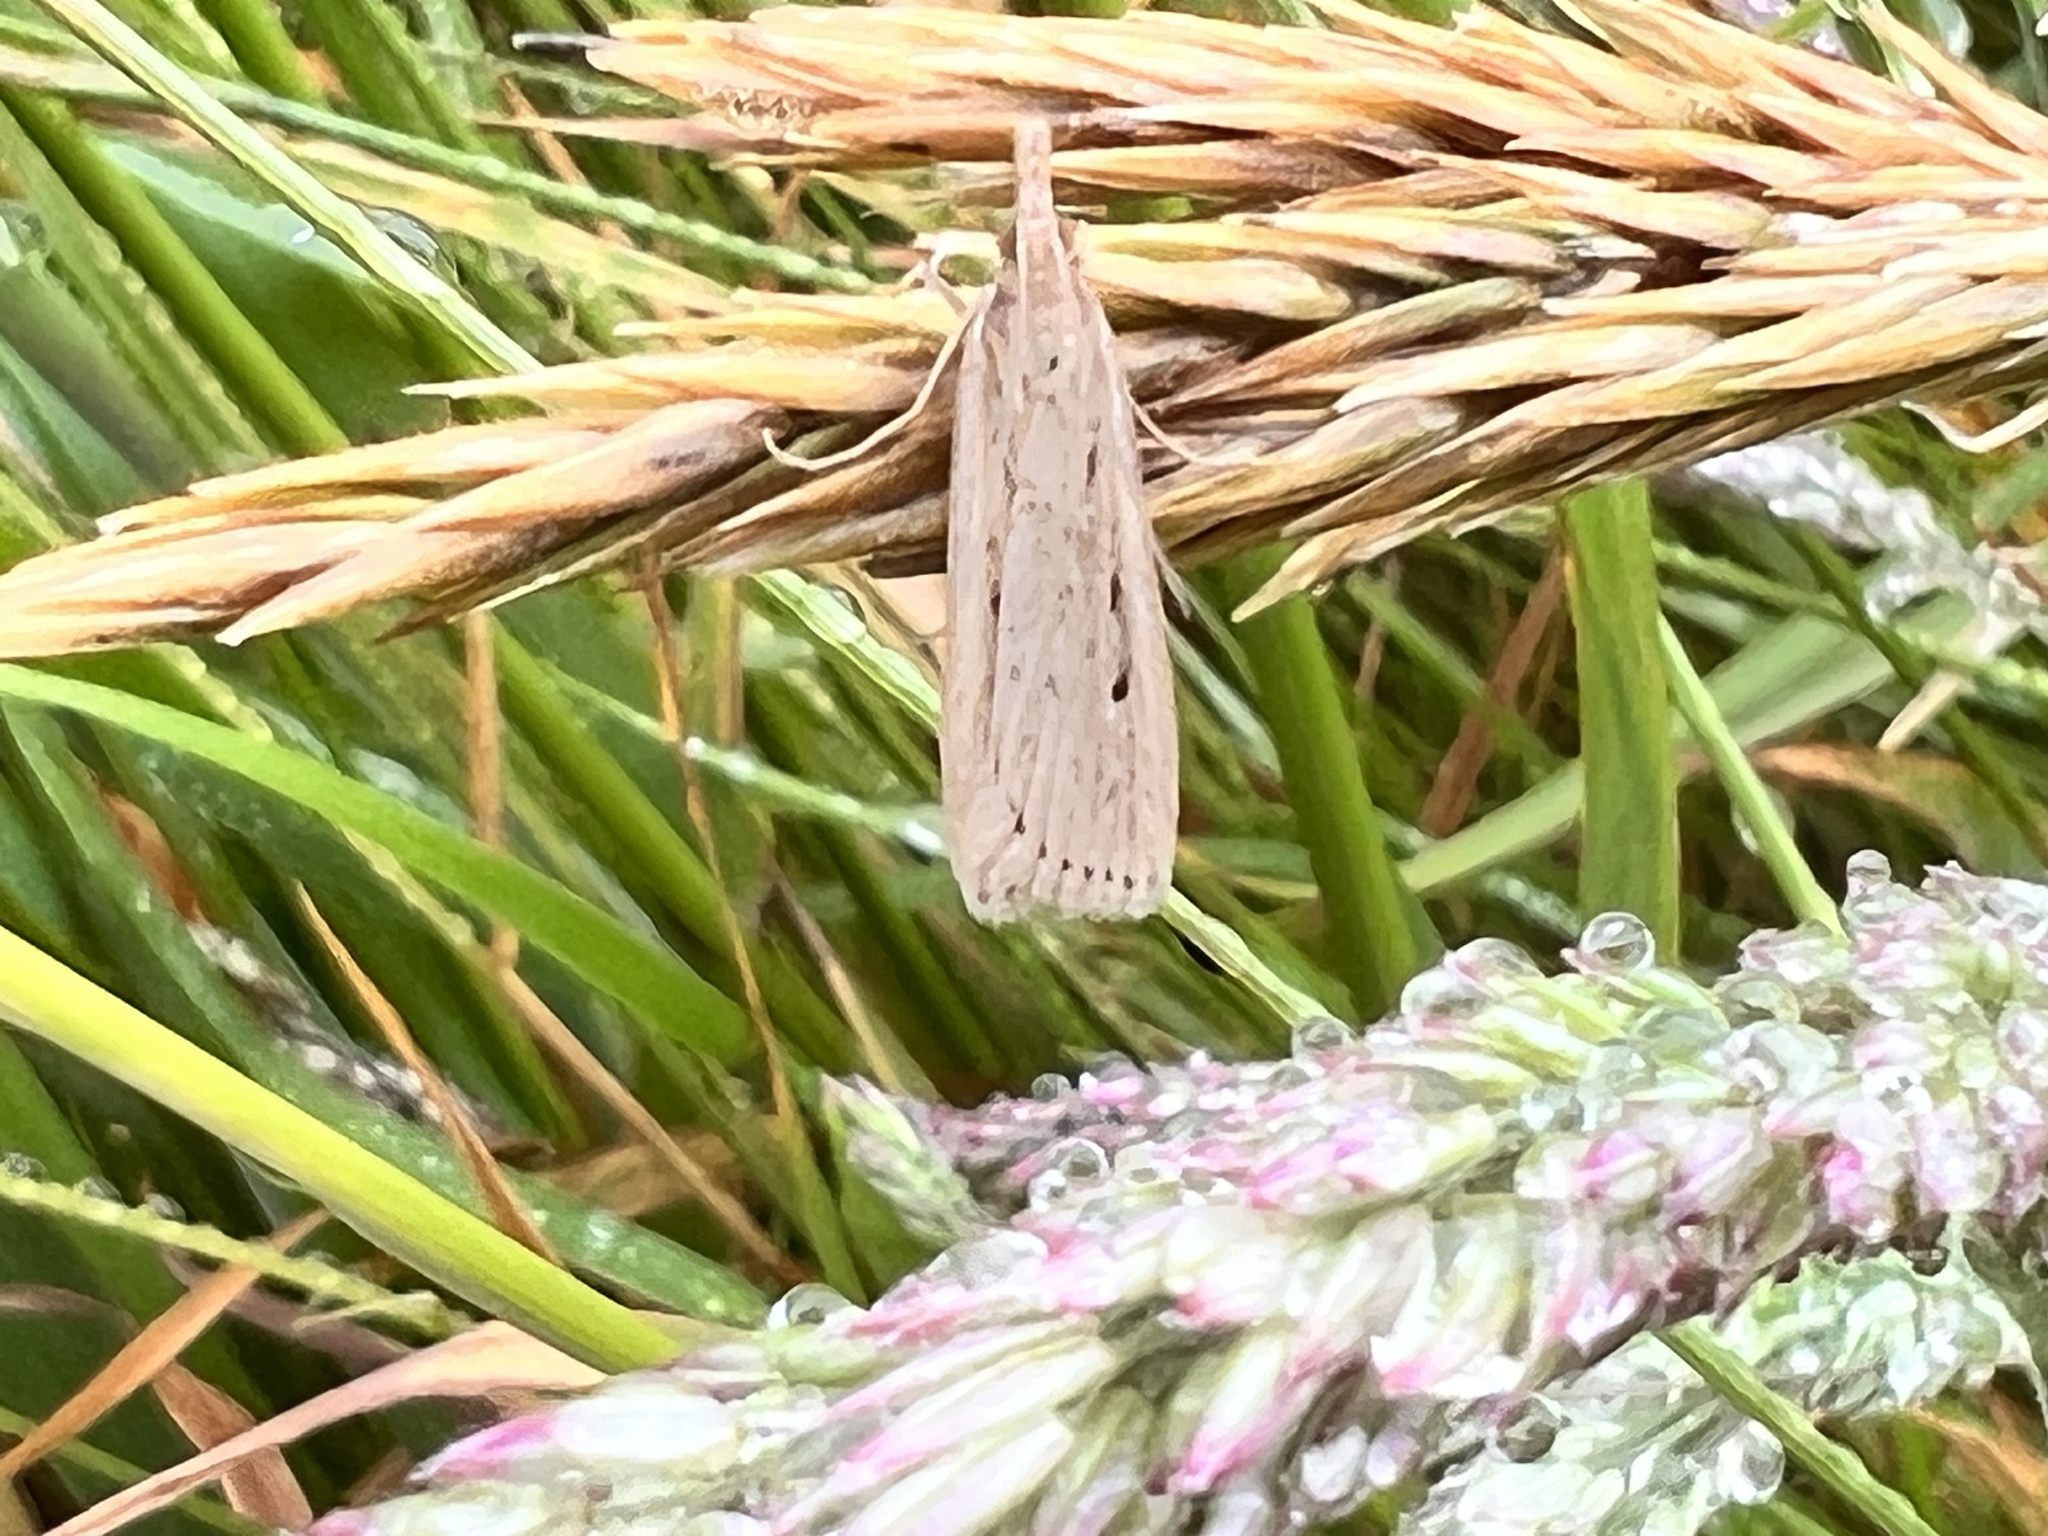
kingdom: Animalia
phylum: Arthropoda
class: Insecta
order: Lepidoptera
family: Crambidae
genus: Eudonia
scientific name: Eudonia sabulosella
